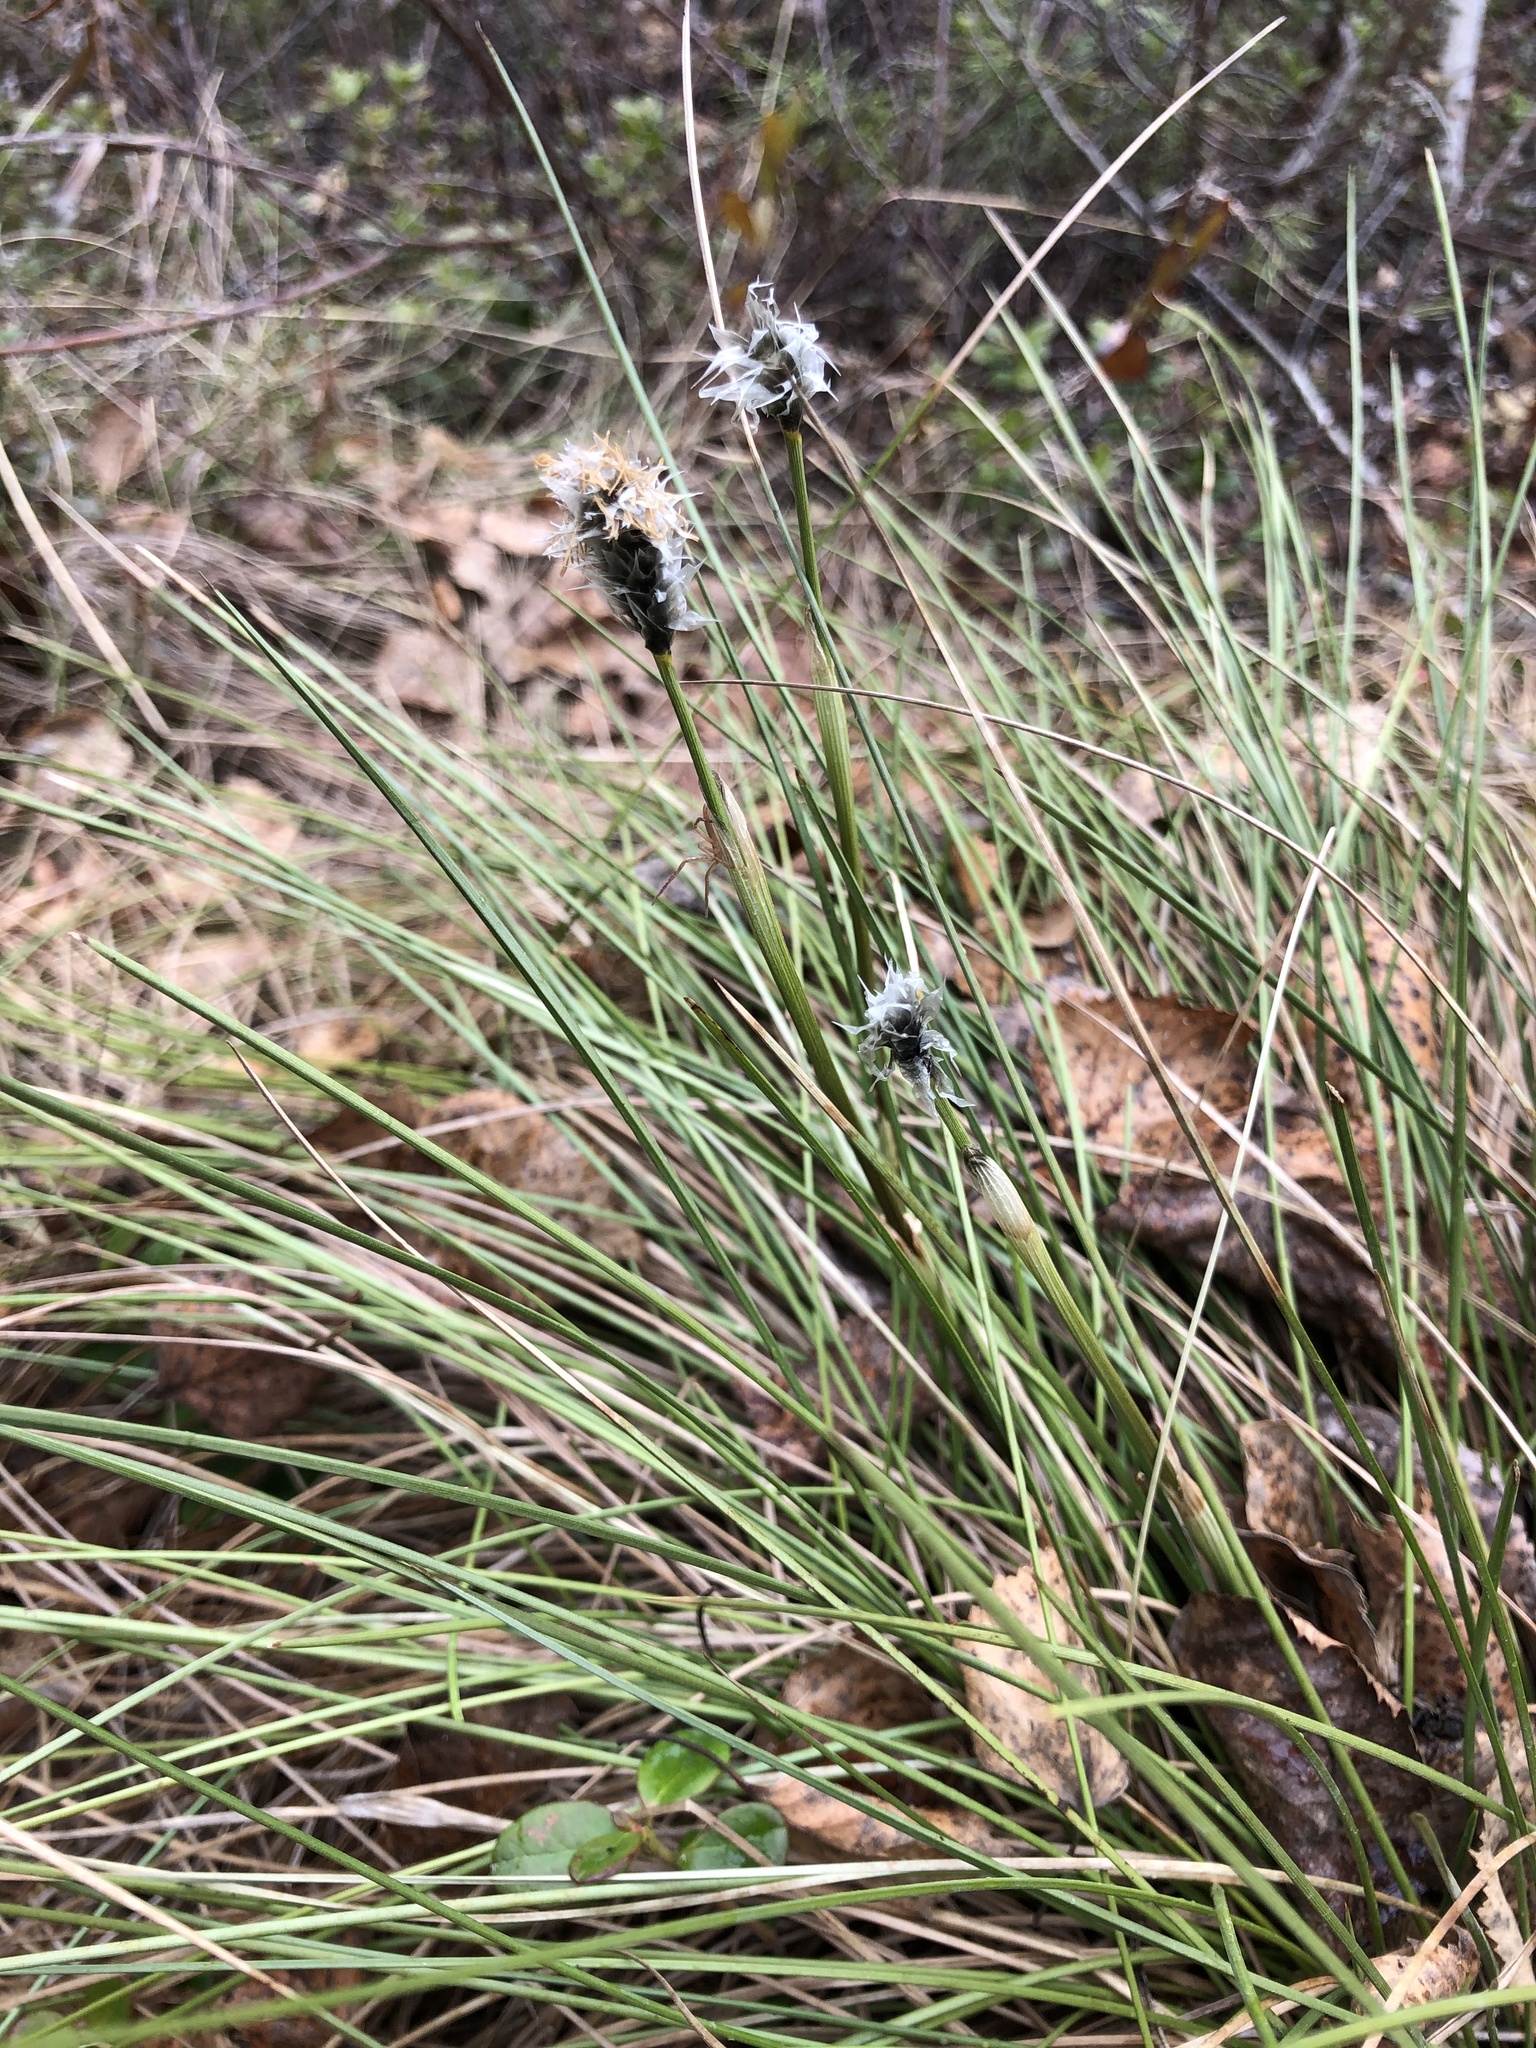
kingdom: Plantae
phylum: Tracheophyta
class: Liliopsida
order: Poales
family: Cyperaceae
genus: Eriophorum
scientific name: Eriophorum vaginatum
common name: Hare's-tail cottongrass
